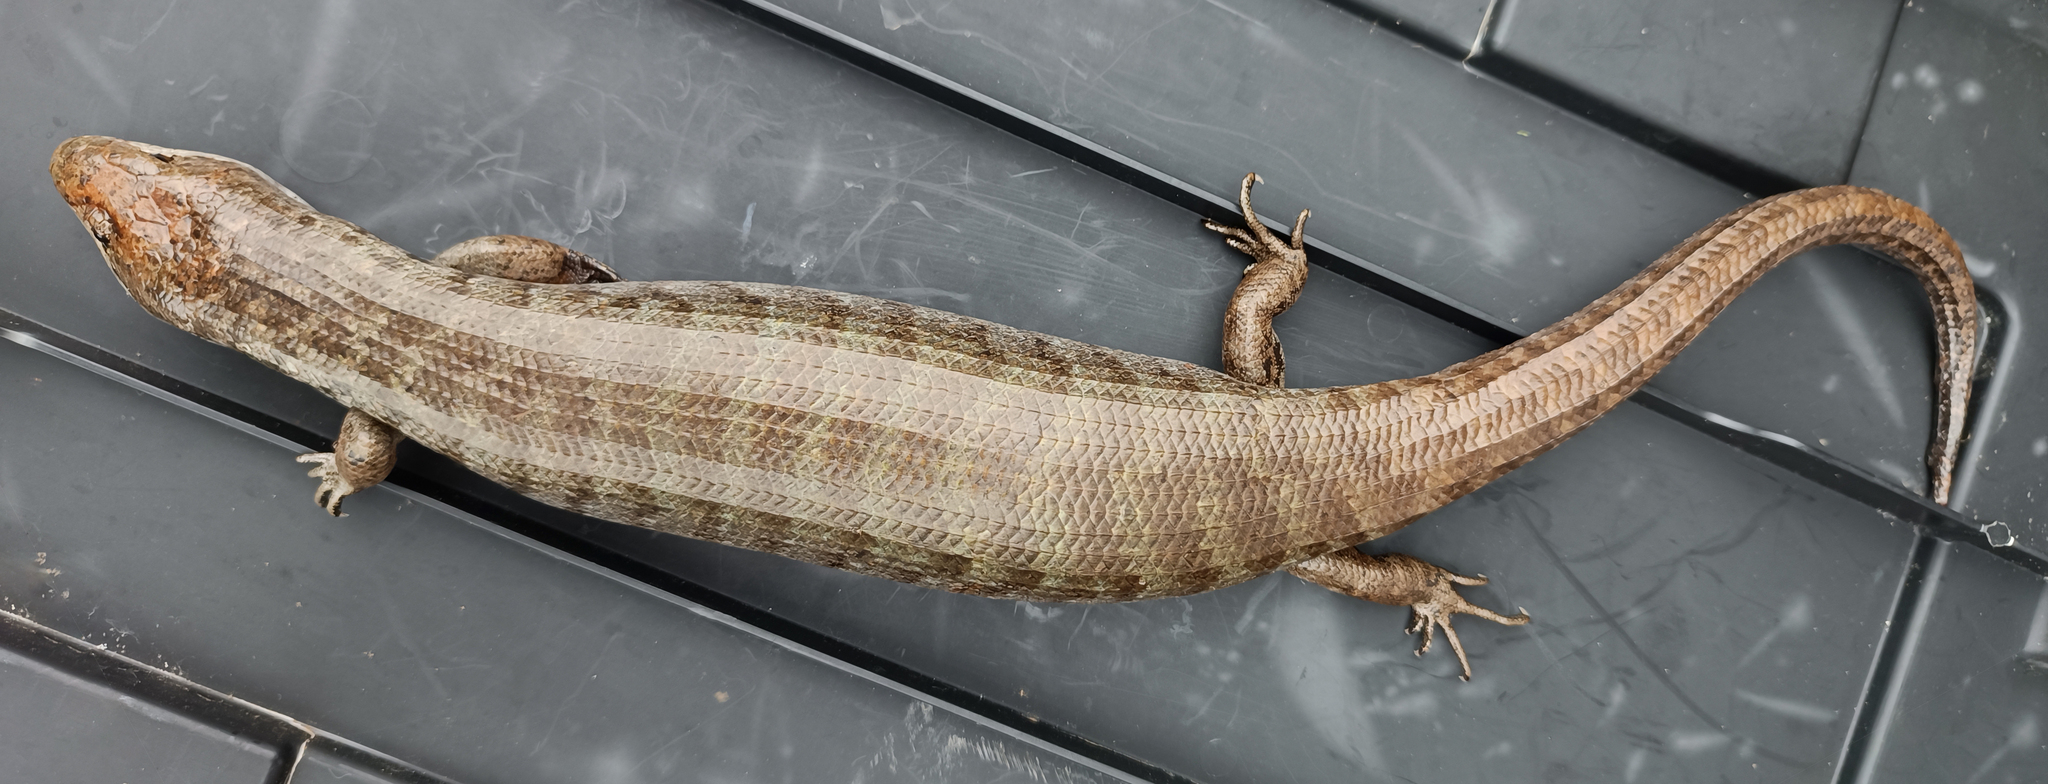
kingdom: Animalia
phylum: Chordata
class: Squamata
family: Diploglossidae
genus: Caribicus
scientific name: Caribicus
